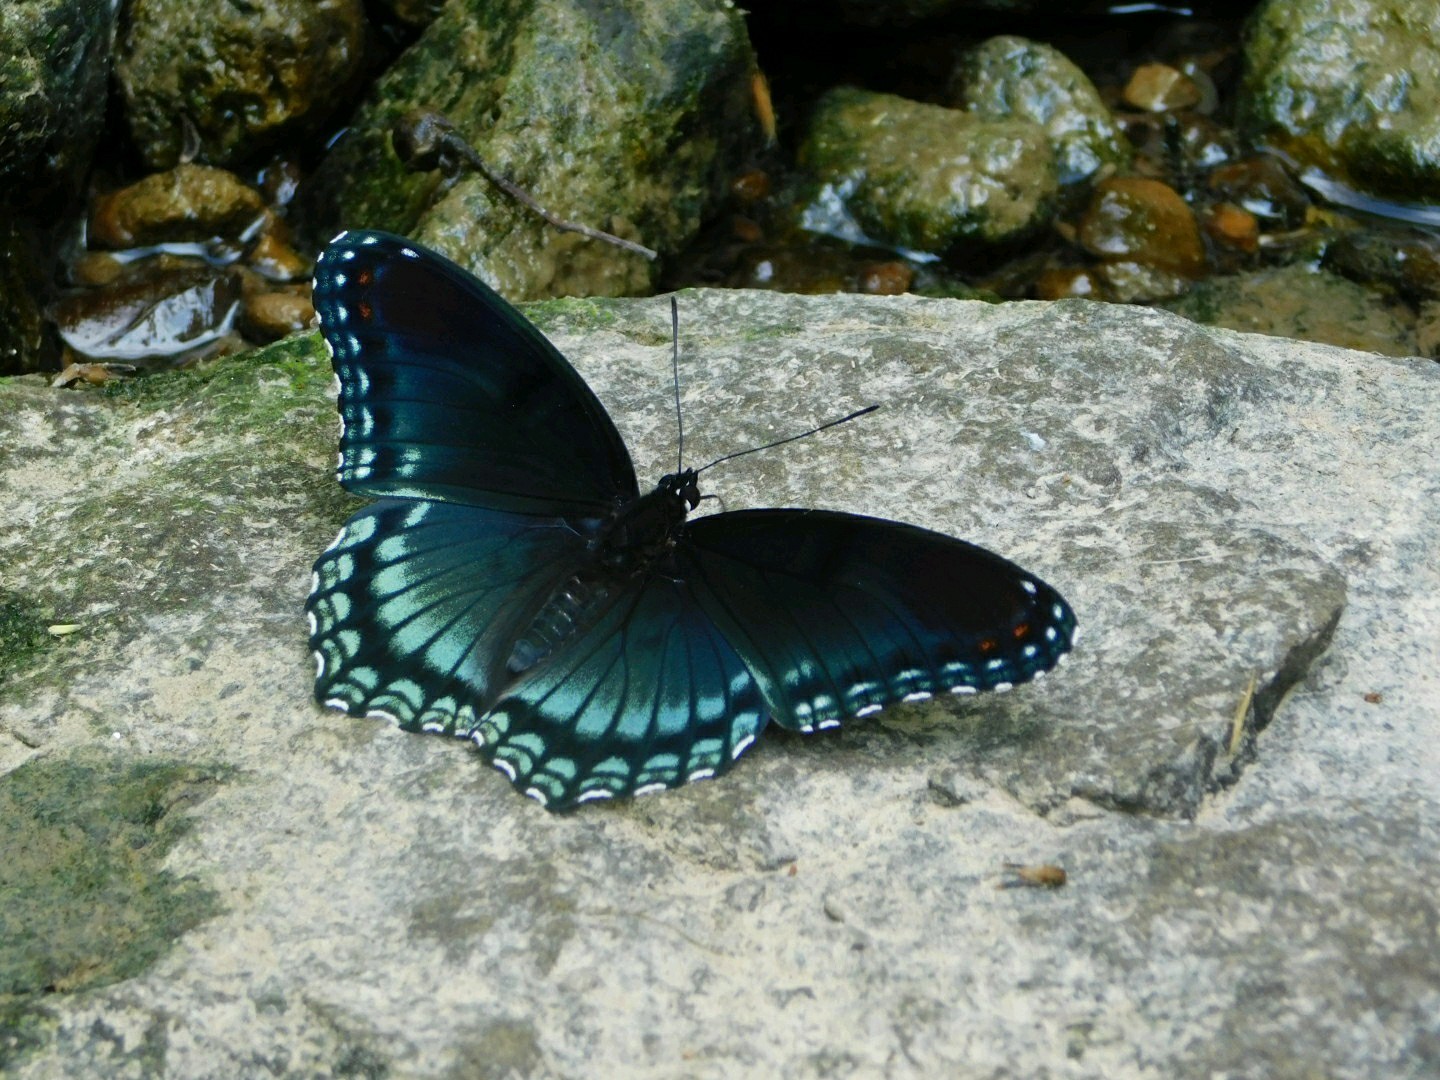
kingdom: Animalia
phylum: Arthropoda
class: Insecta
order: Lepidoptera
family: Nymphalidae
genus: Limenitis
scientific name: Limenitis astyanax
